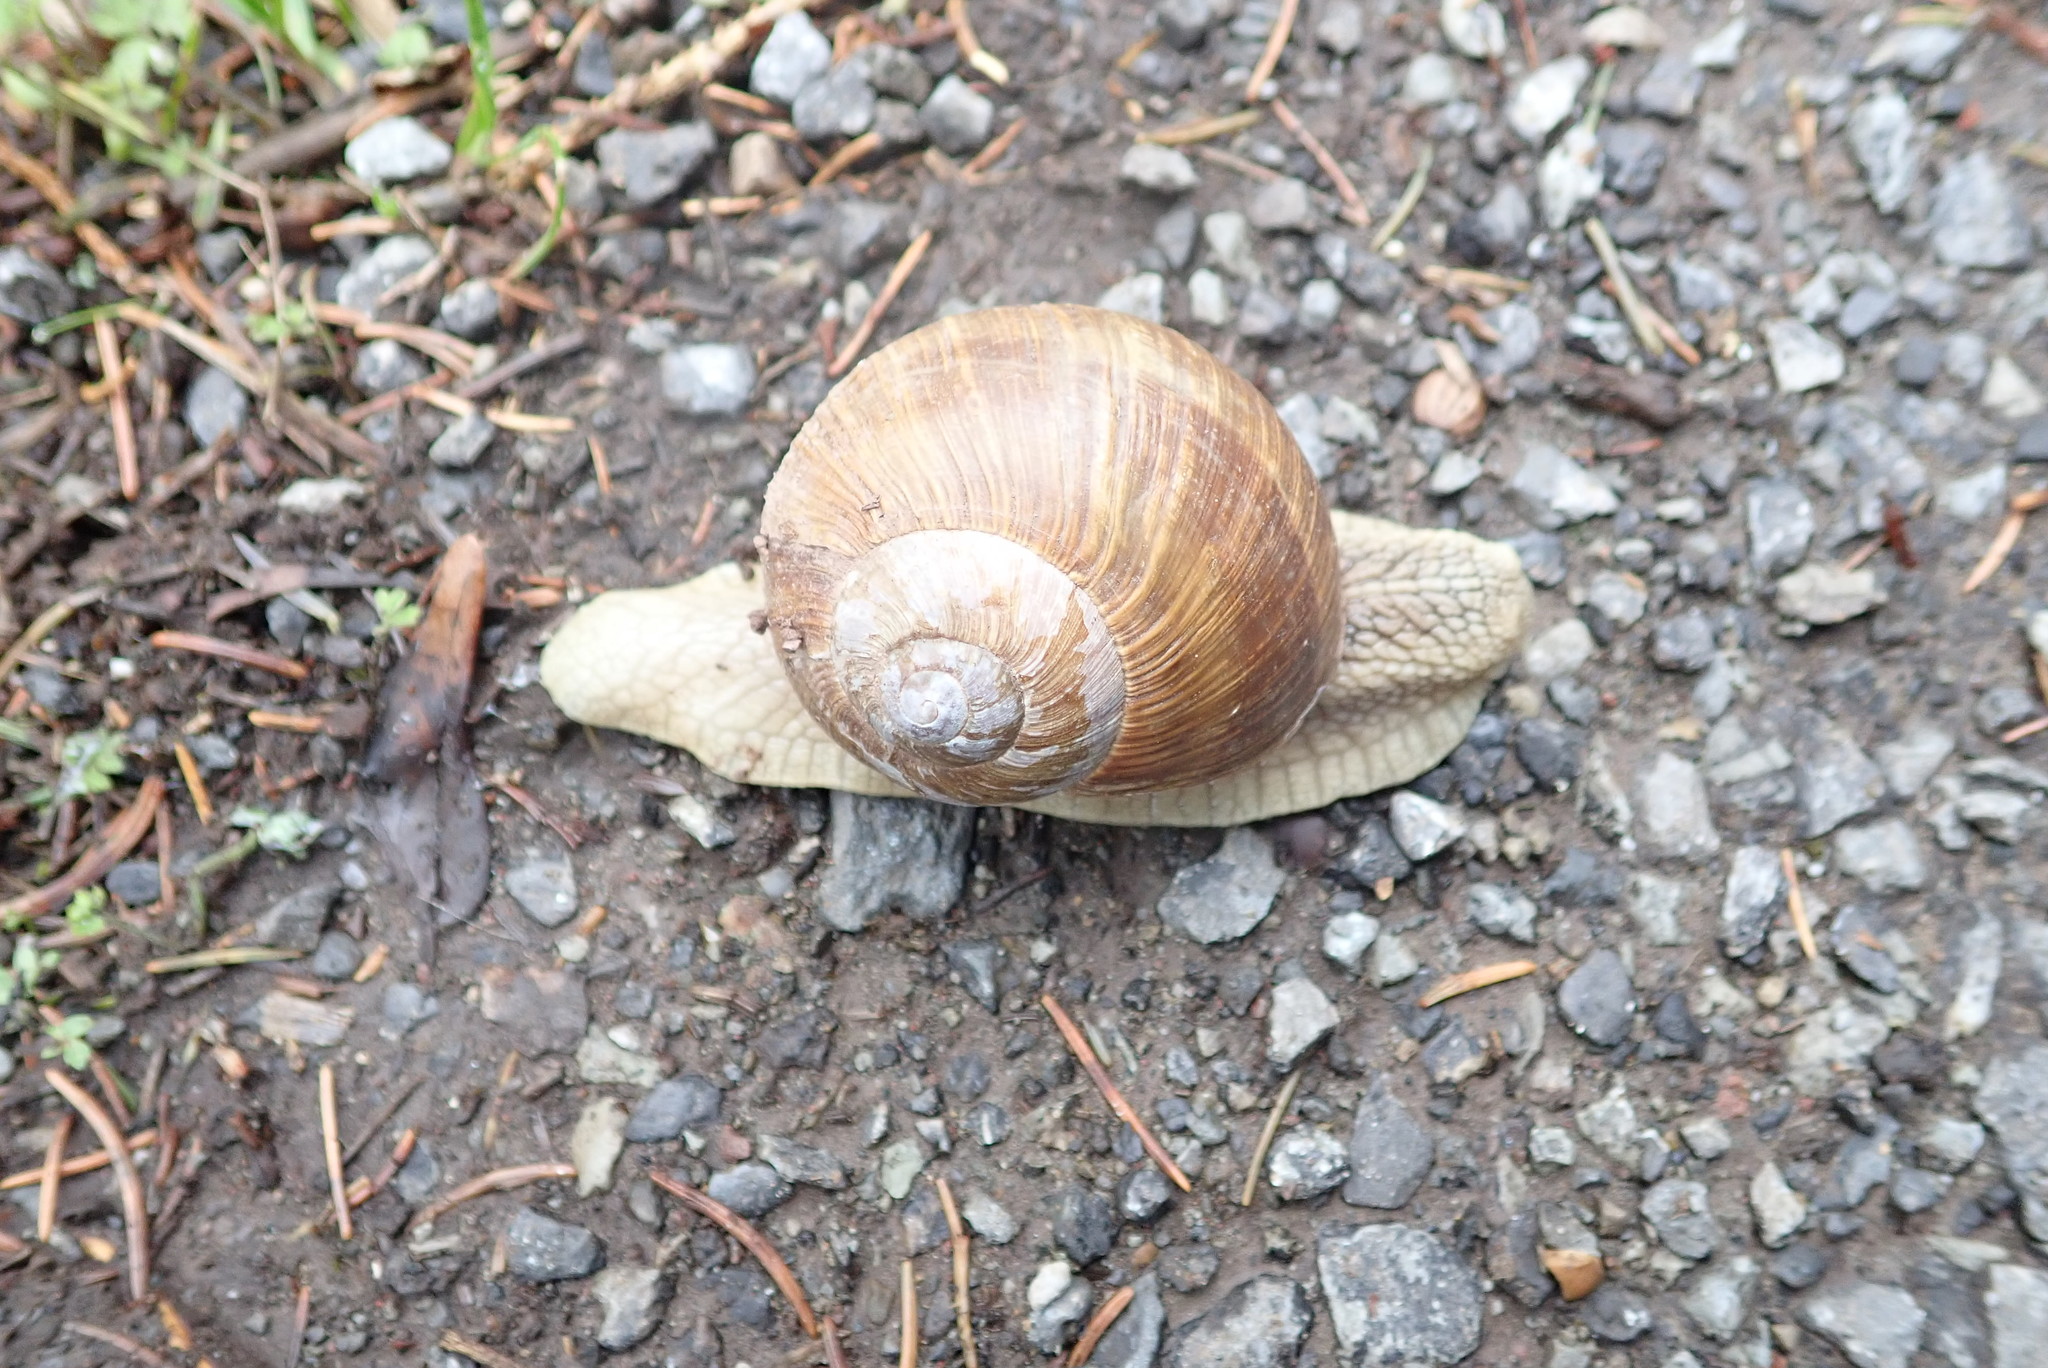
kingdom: Animalia
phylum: Mollusca
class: Gastropoda
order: Stylommatophora
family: Helicidae
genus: Helix
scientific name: Helix pomatia
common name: Roman snail
